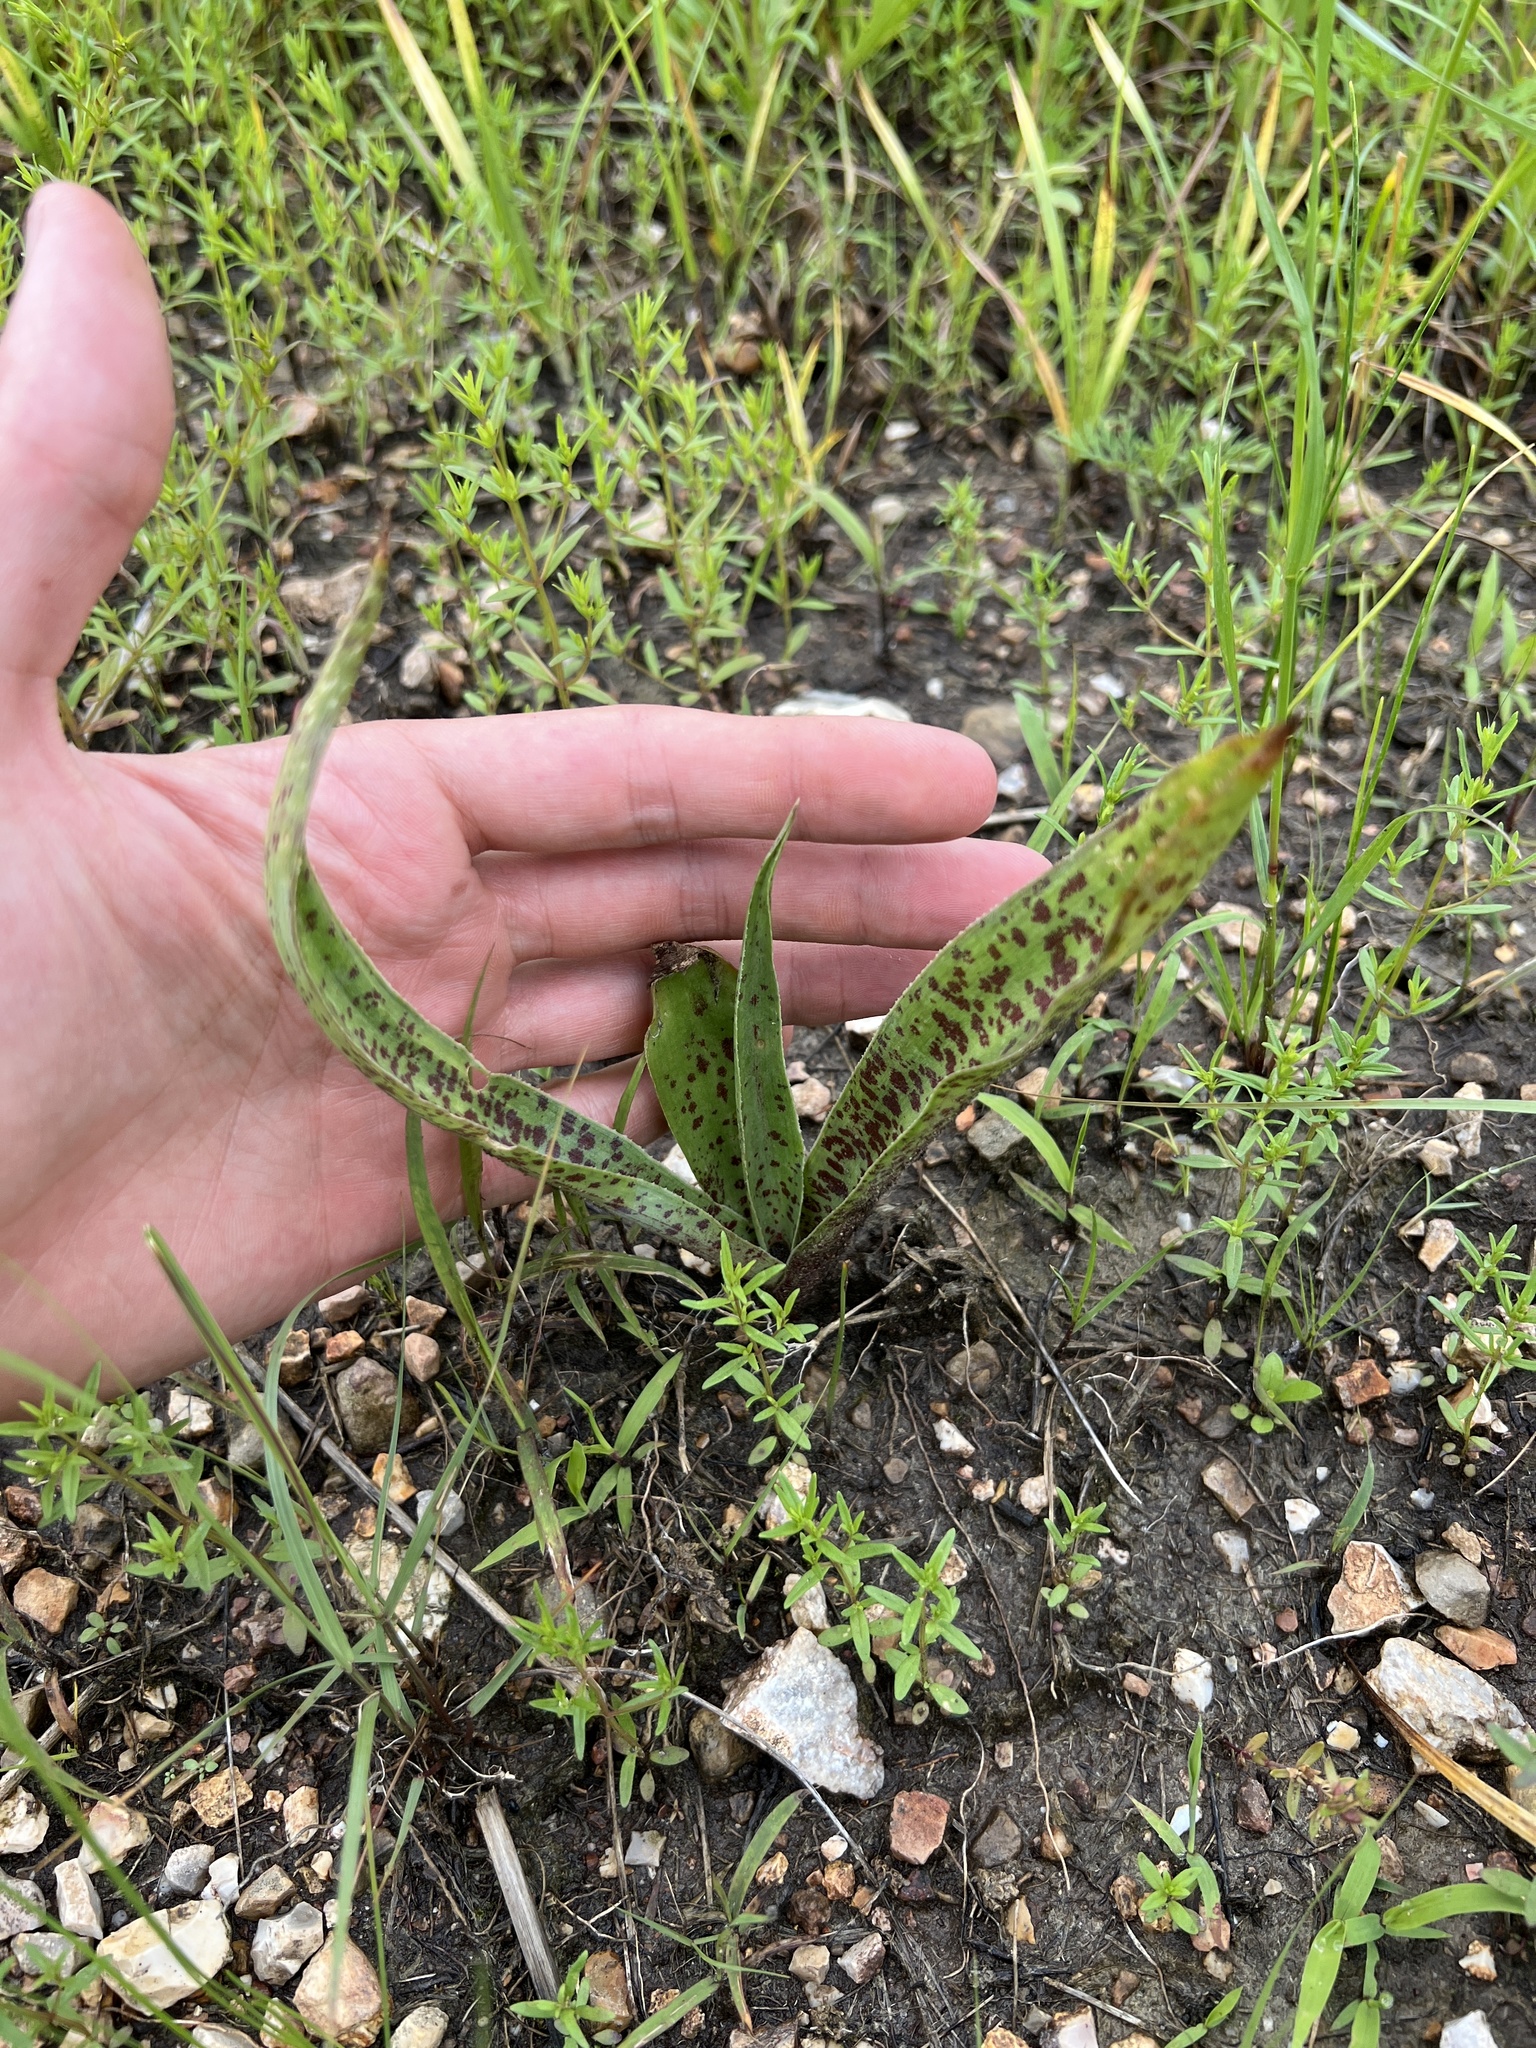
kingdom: Plantae
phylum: Tracheophyta
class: Liliopsida
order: Asparagales
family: Asparagaceae
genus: Agave
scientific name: Agave virginica
